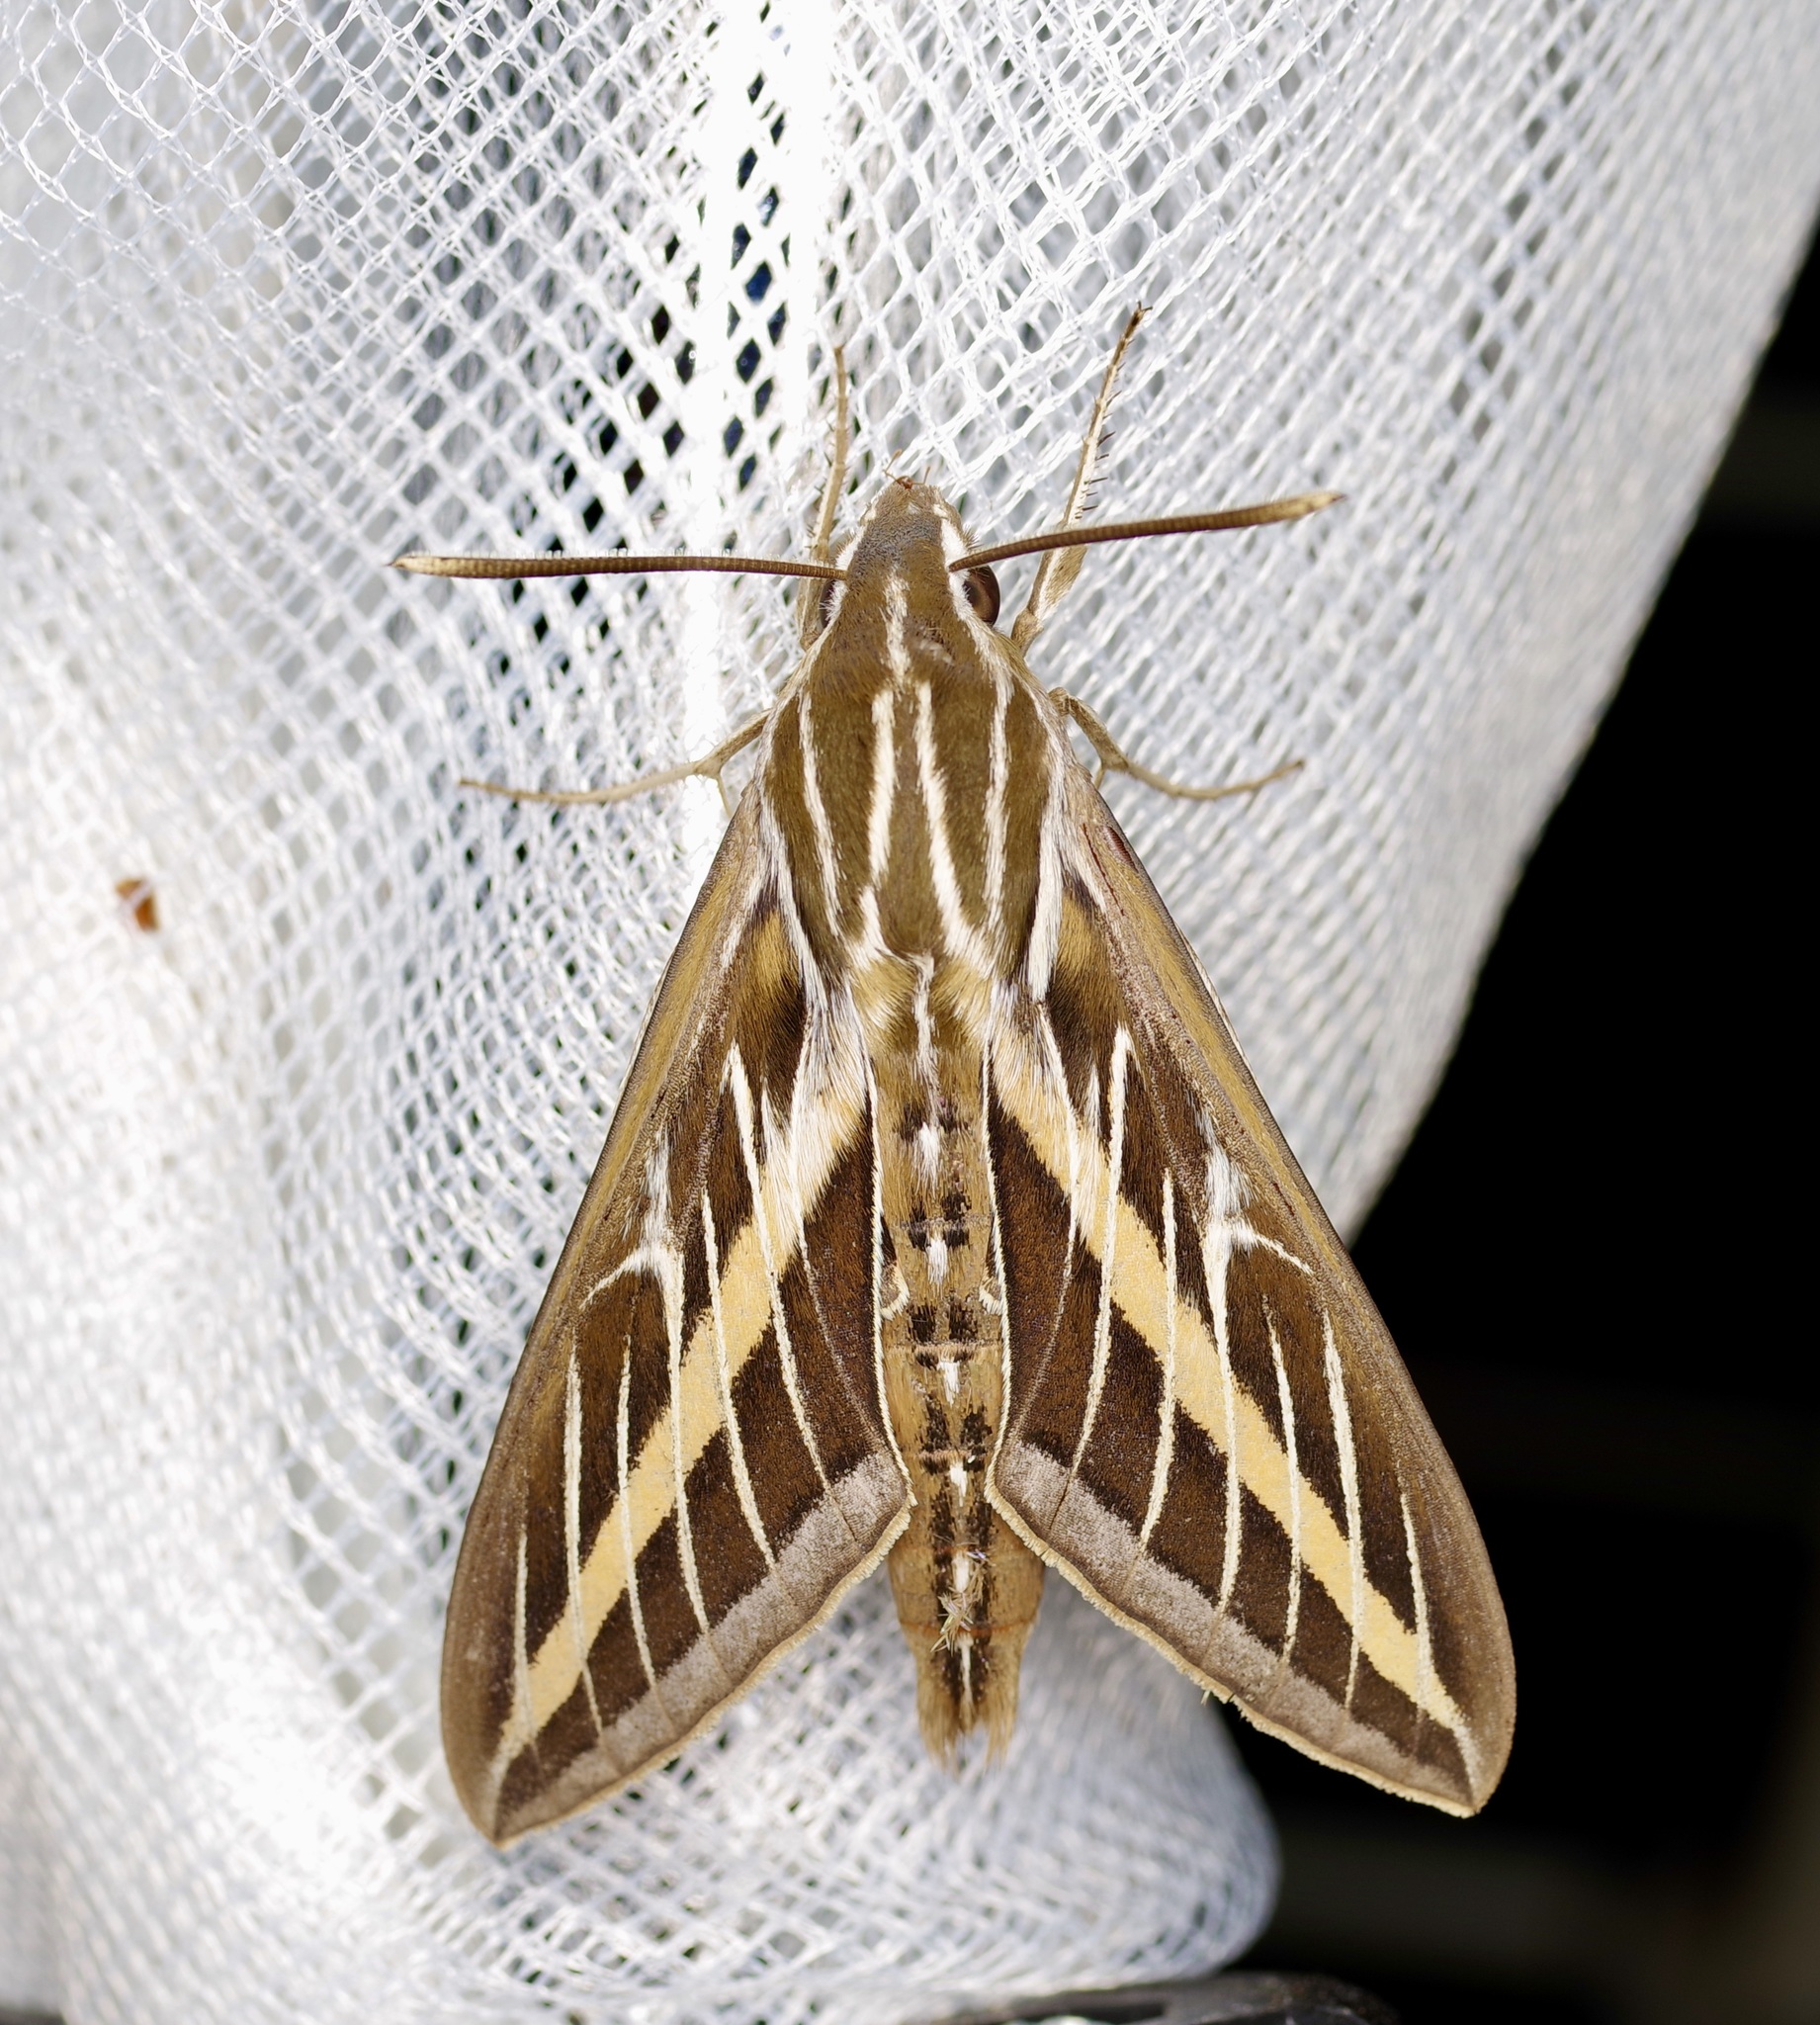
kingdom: Animalia
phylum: Arthropoda
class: Insecta
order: Lepidoptera
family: Sphingidae
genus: Hyles
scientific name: Hyles lineata
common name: White-lined sphinx
